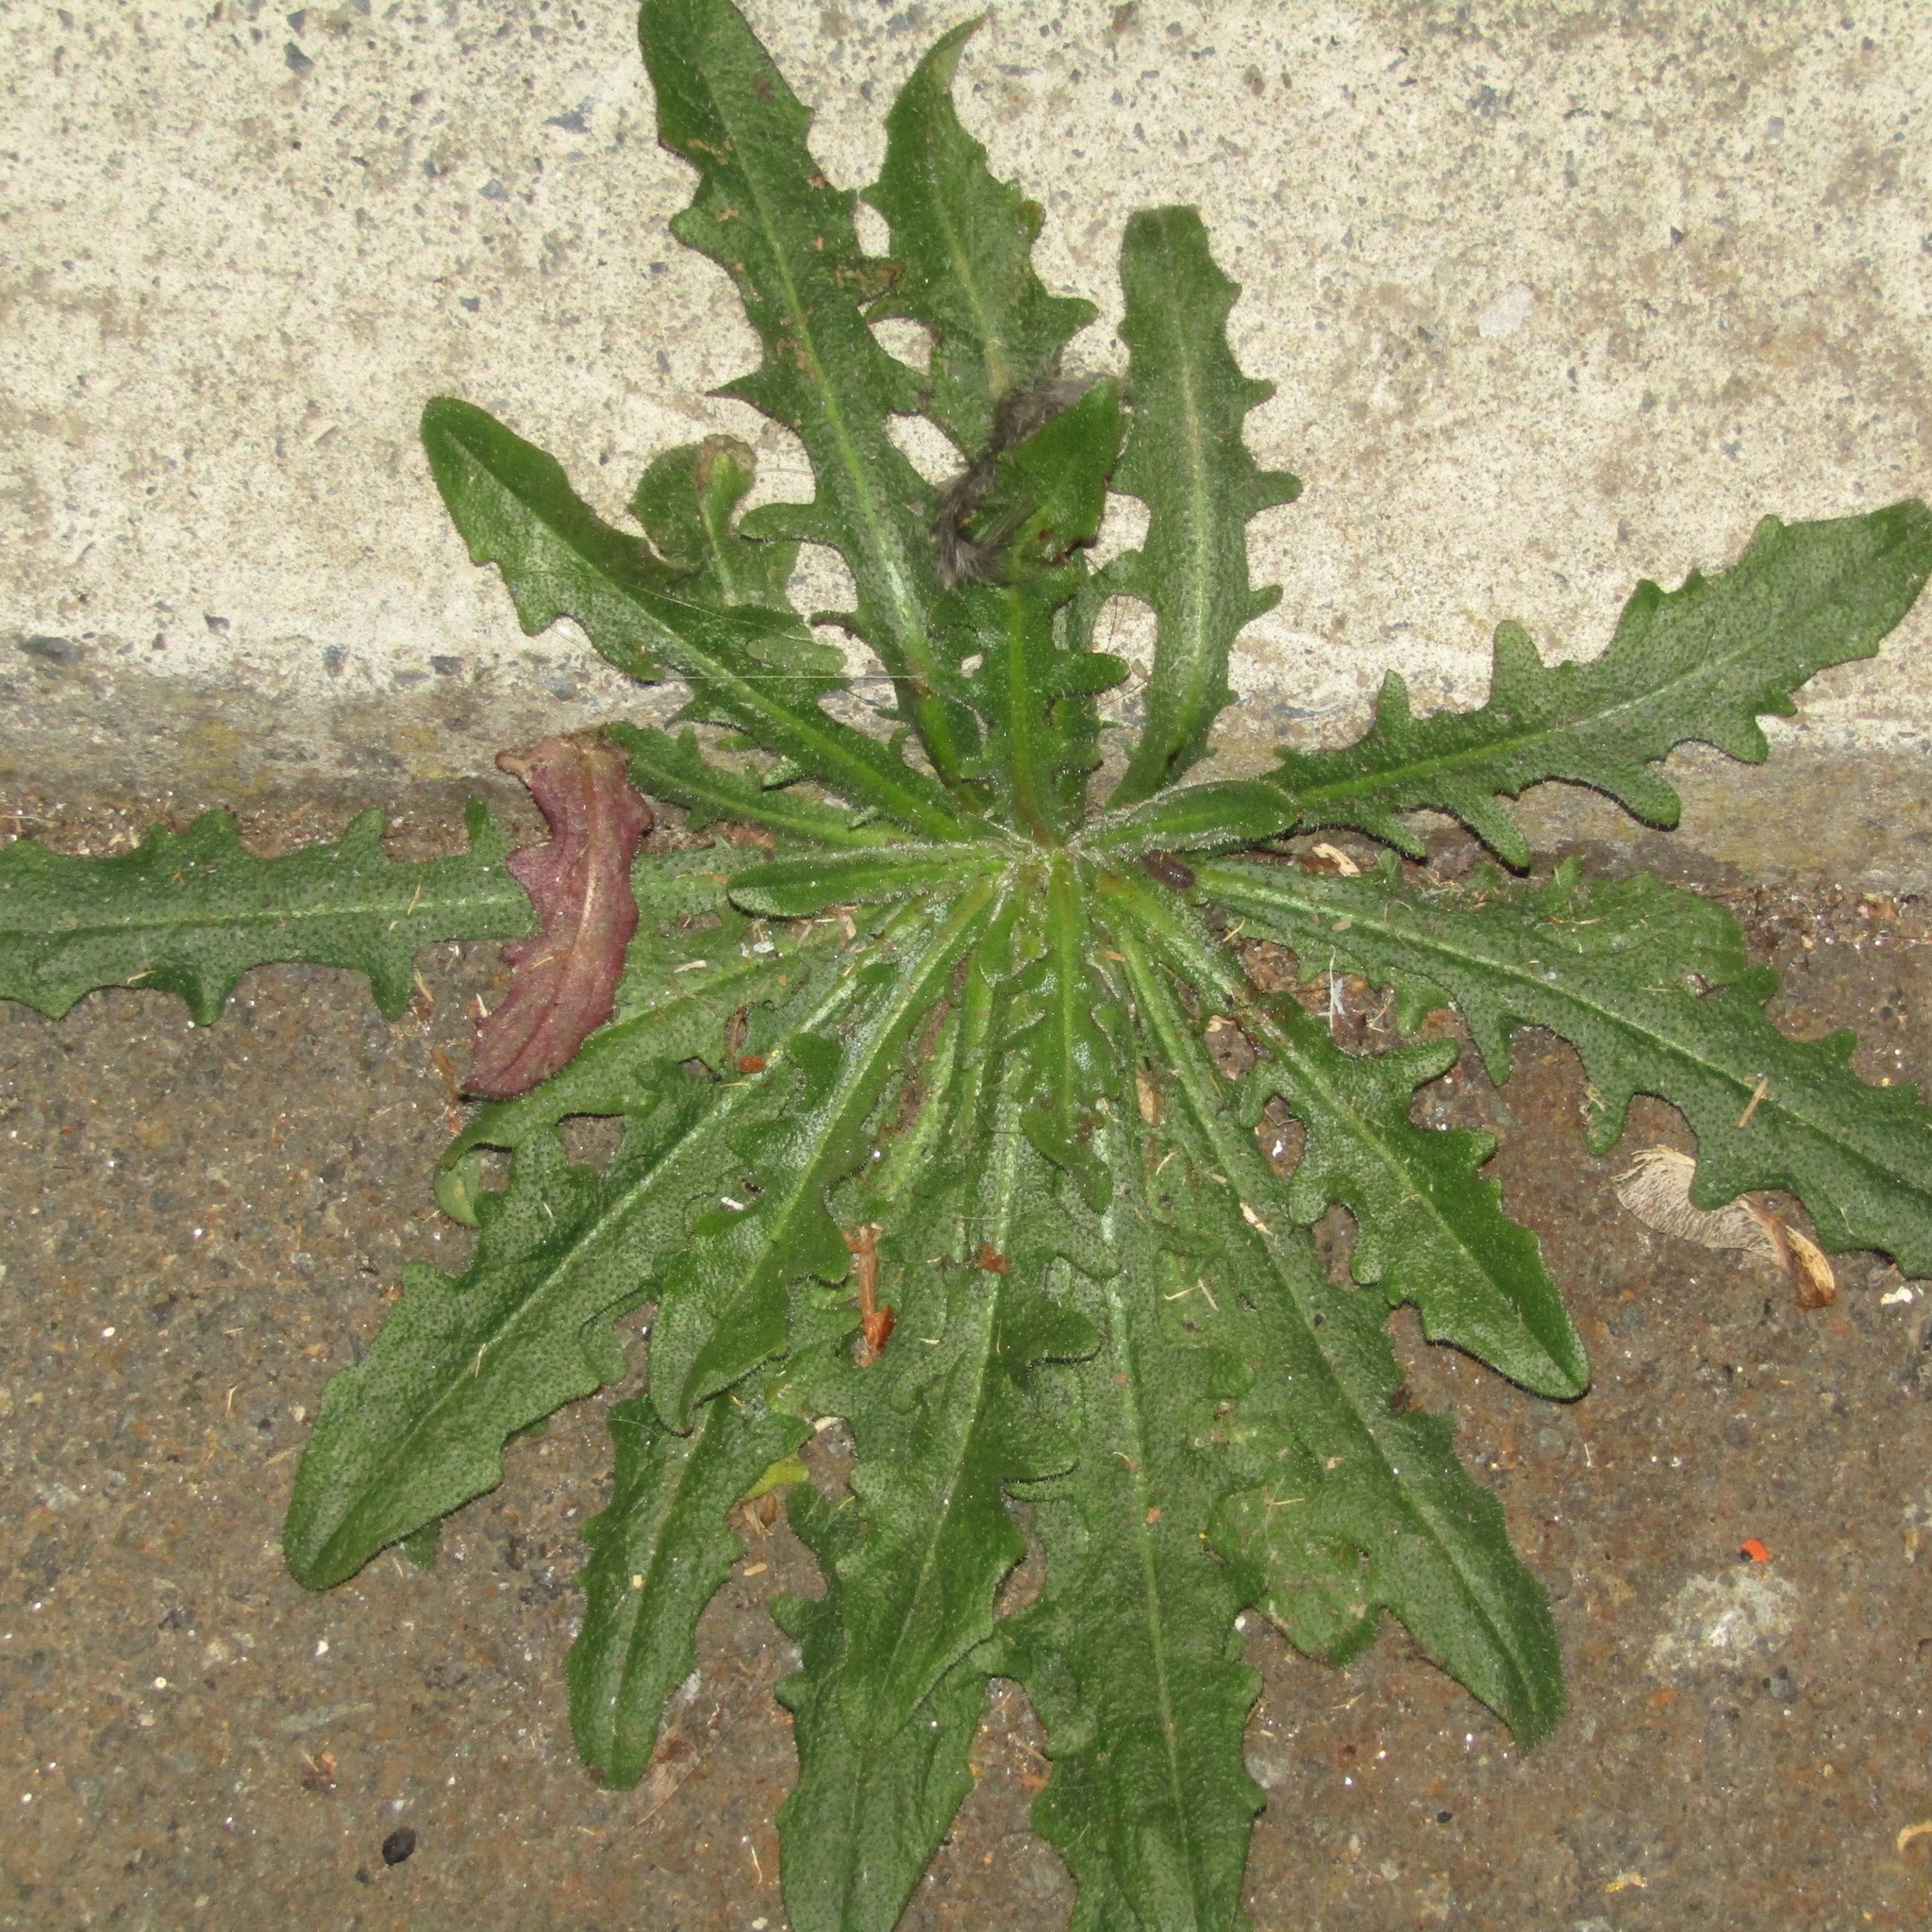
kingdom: Plantae
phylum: Tracheophyta
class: Magnoliopsida
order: Asterales
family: Asteraceae
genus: Hypochaeris
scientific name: Hypochaeris radicata
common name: Flatweed
